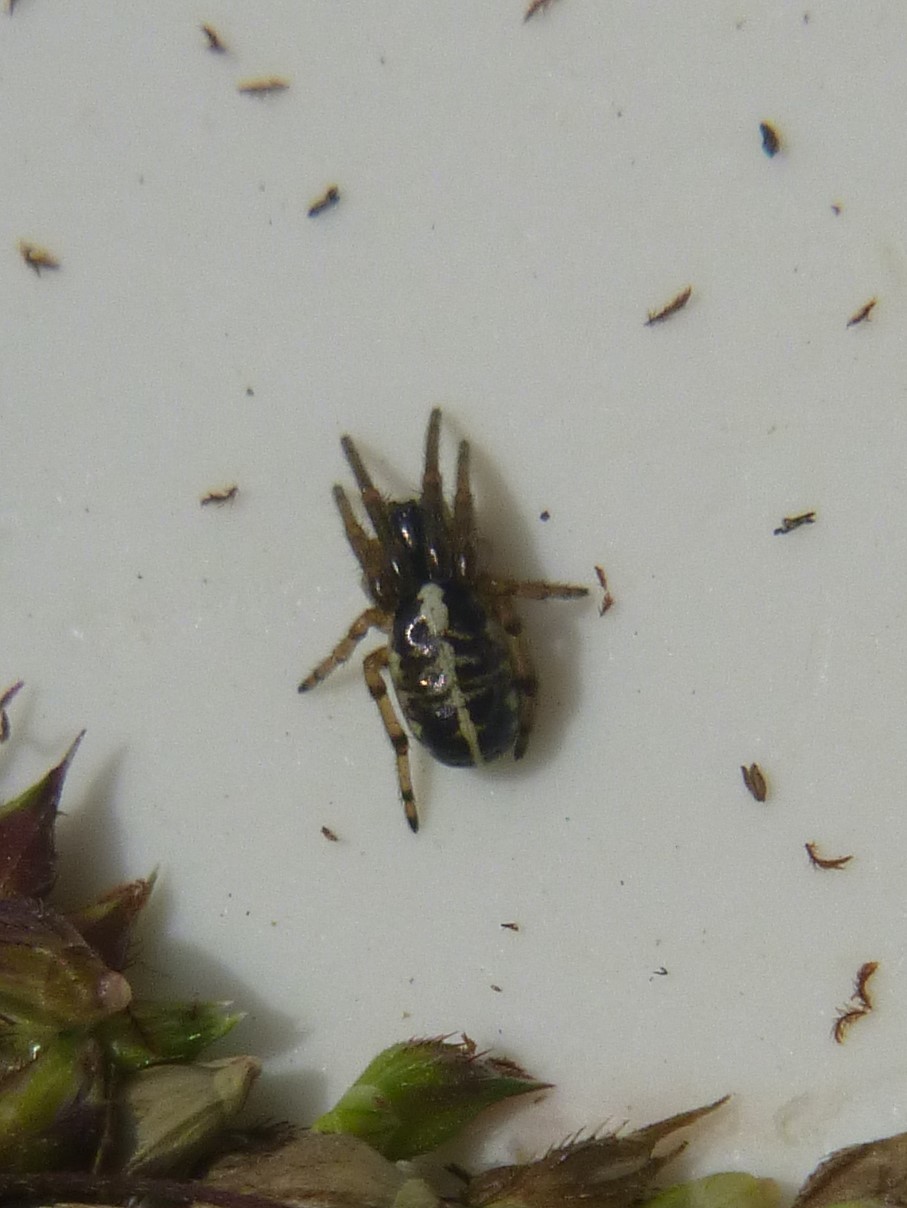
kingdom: Animalia
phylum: Arthropoda
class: Arachnida
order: Araneae
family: Araneidae
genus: Singa
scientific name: Singa hamata
